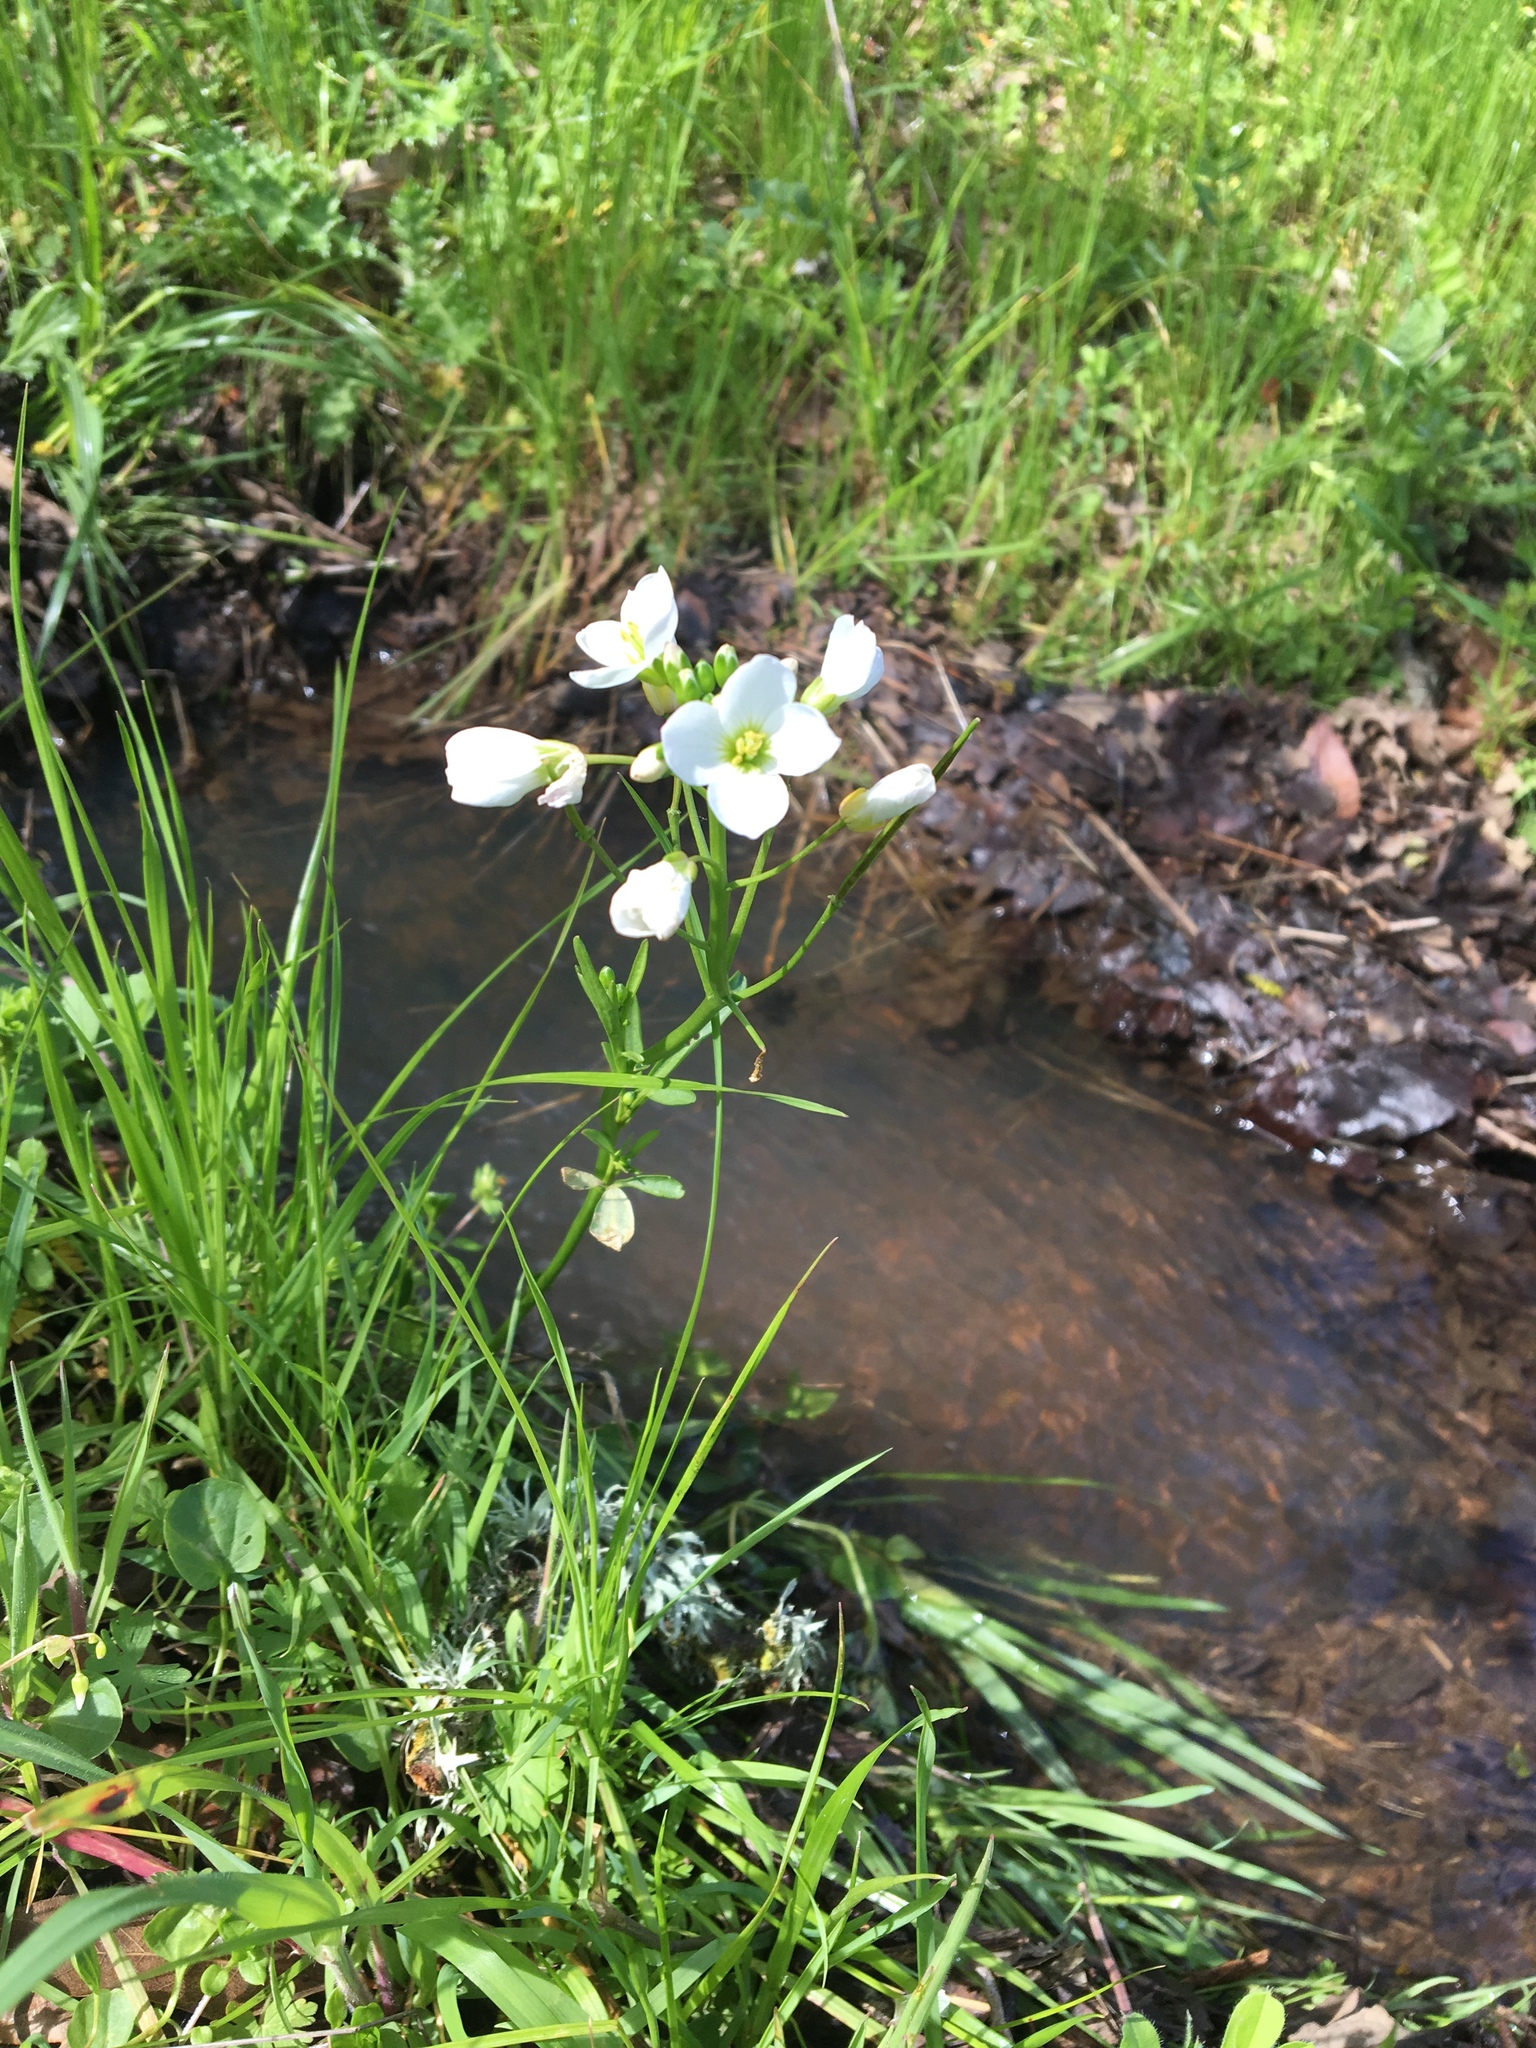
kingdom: Plantae
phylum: Tracheophyta
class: Magnoliopsida
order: Brassicales
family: Brassicaceae
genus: Cardamine
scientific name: Cardamine californica
